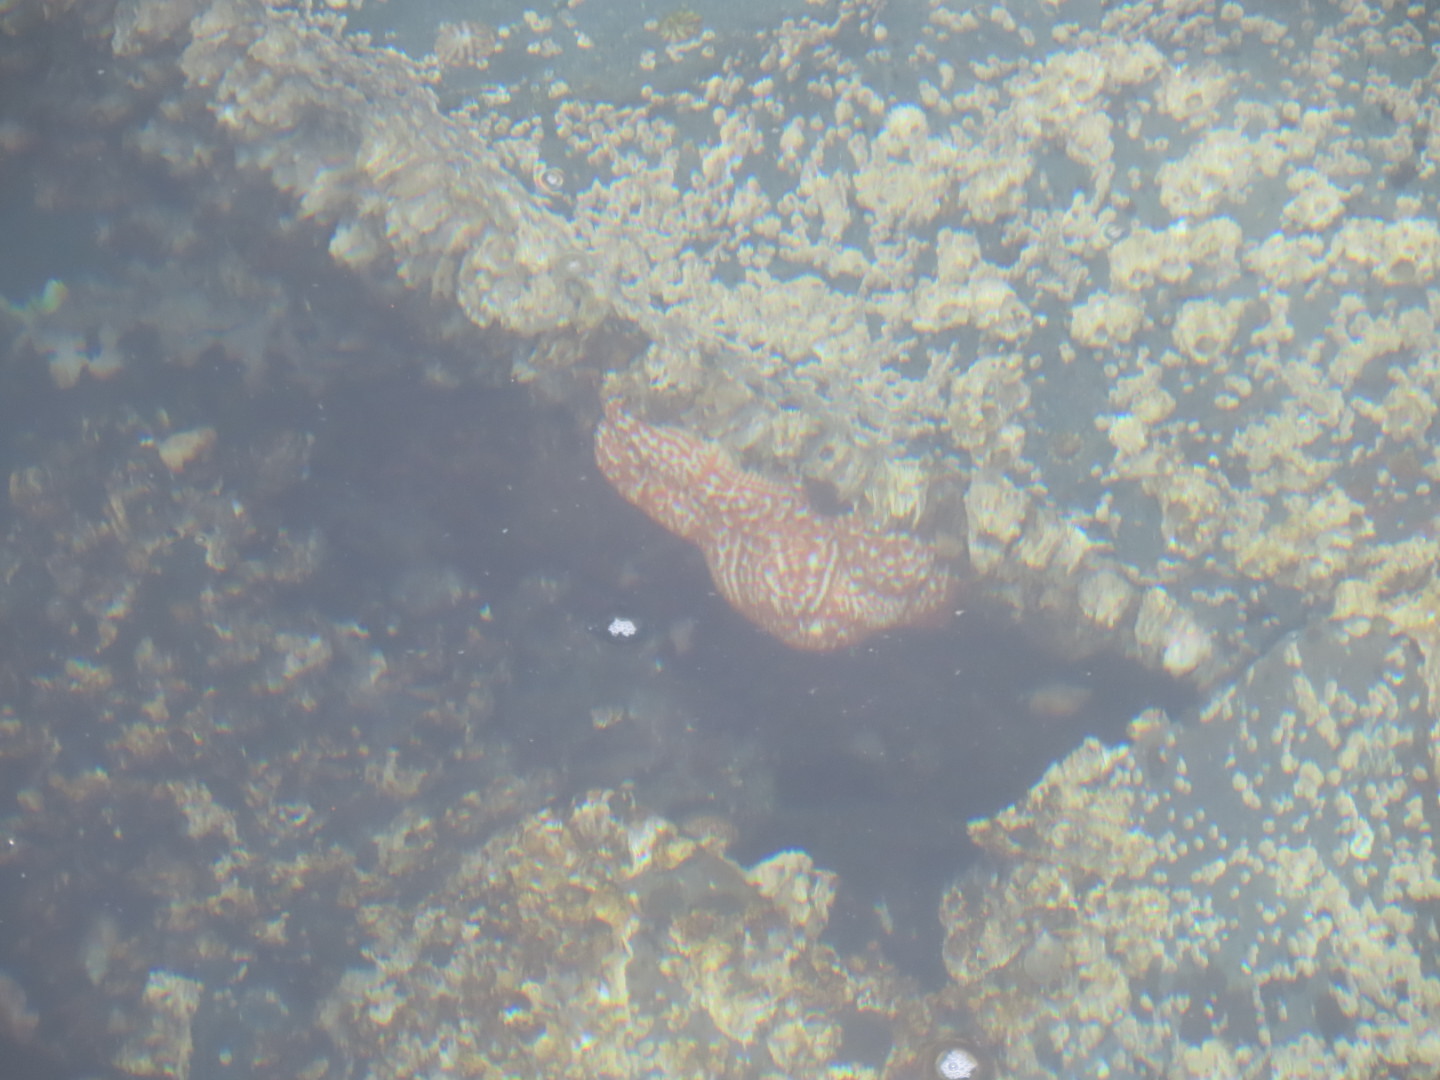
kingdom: Animalia
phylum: Echinodermata
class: Asteroidea
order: Forcipulatida
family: Asteriidae
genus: Evasterias
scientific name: Evasterias troschelii
